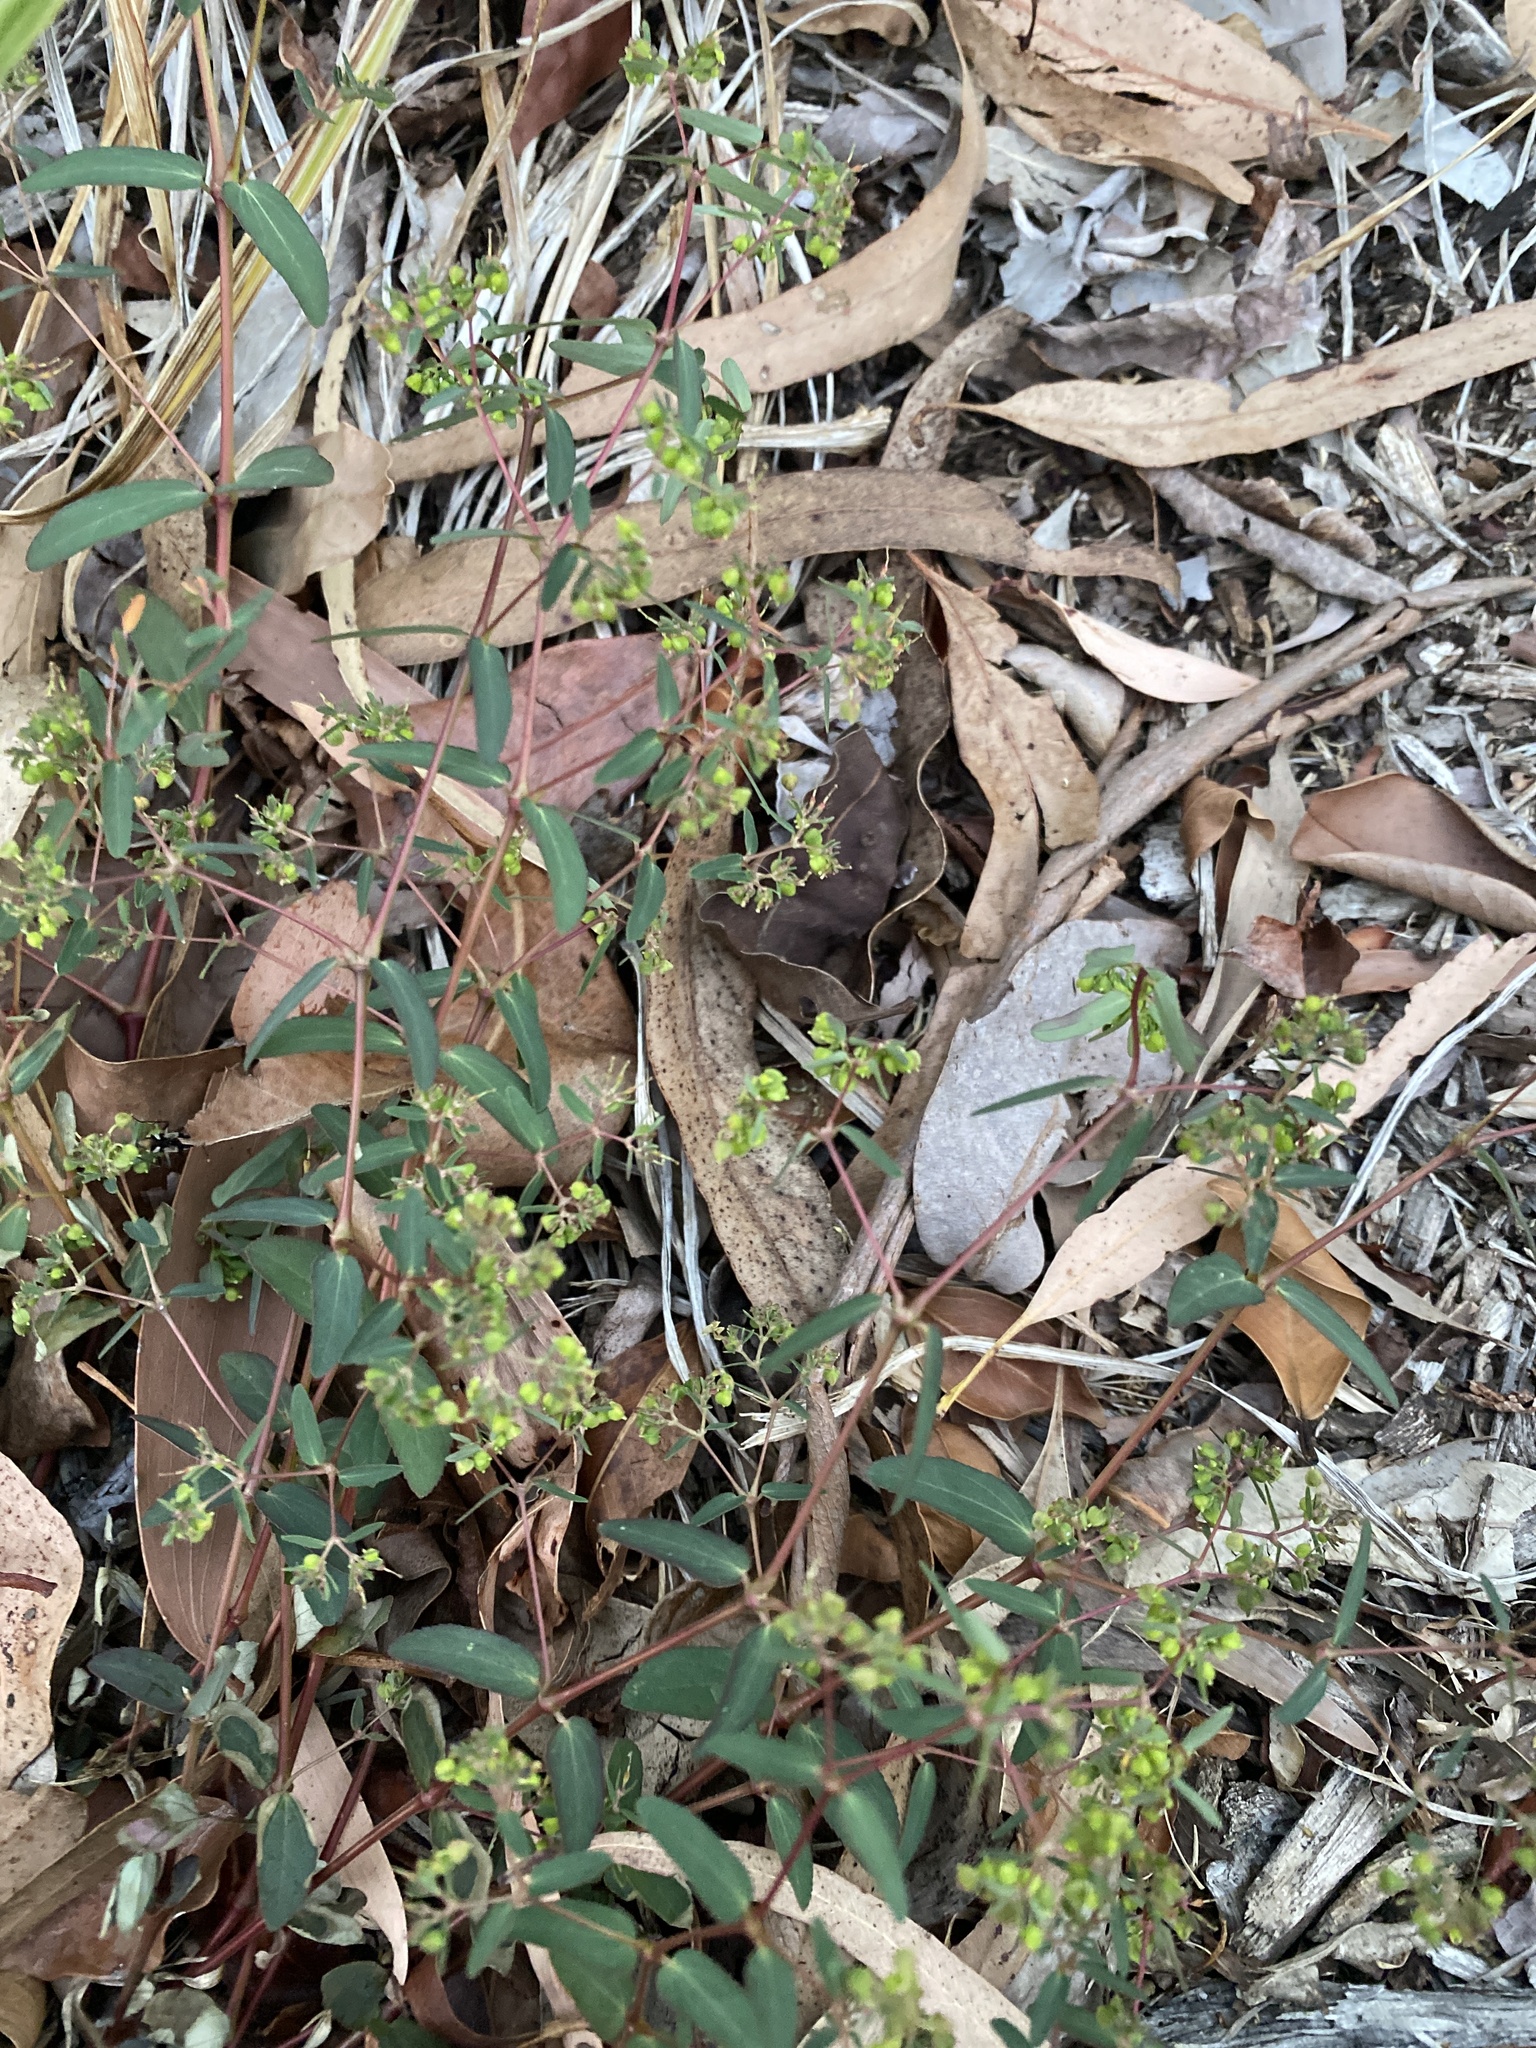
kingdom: Plantae
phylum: Tracheophyta
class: Magnoliopsida
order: Malpighiales
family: Euphorbiaceae
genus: Euphorbia
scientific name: Euphorbia hyssopifolia
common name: Hyssopleaf sandmat
